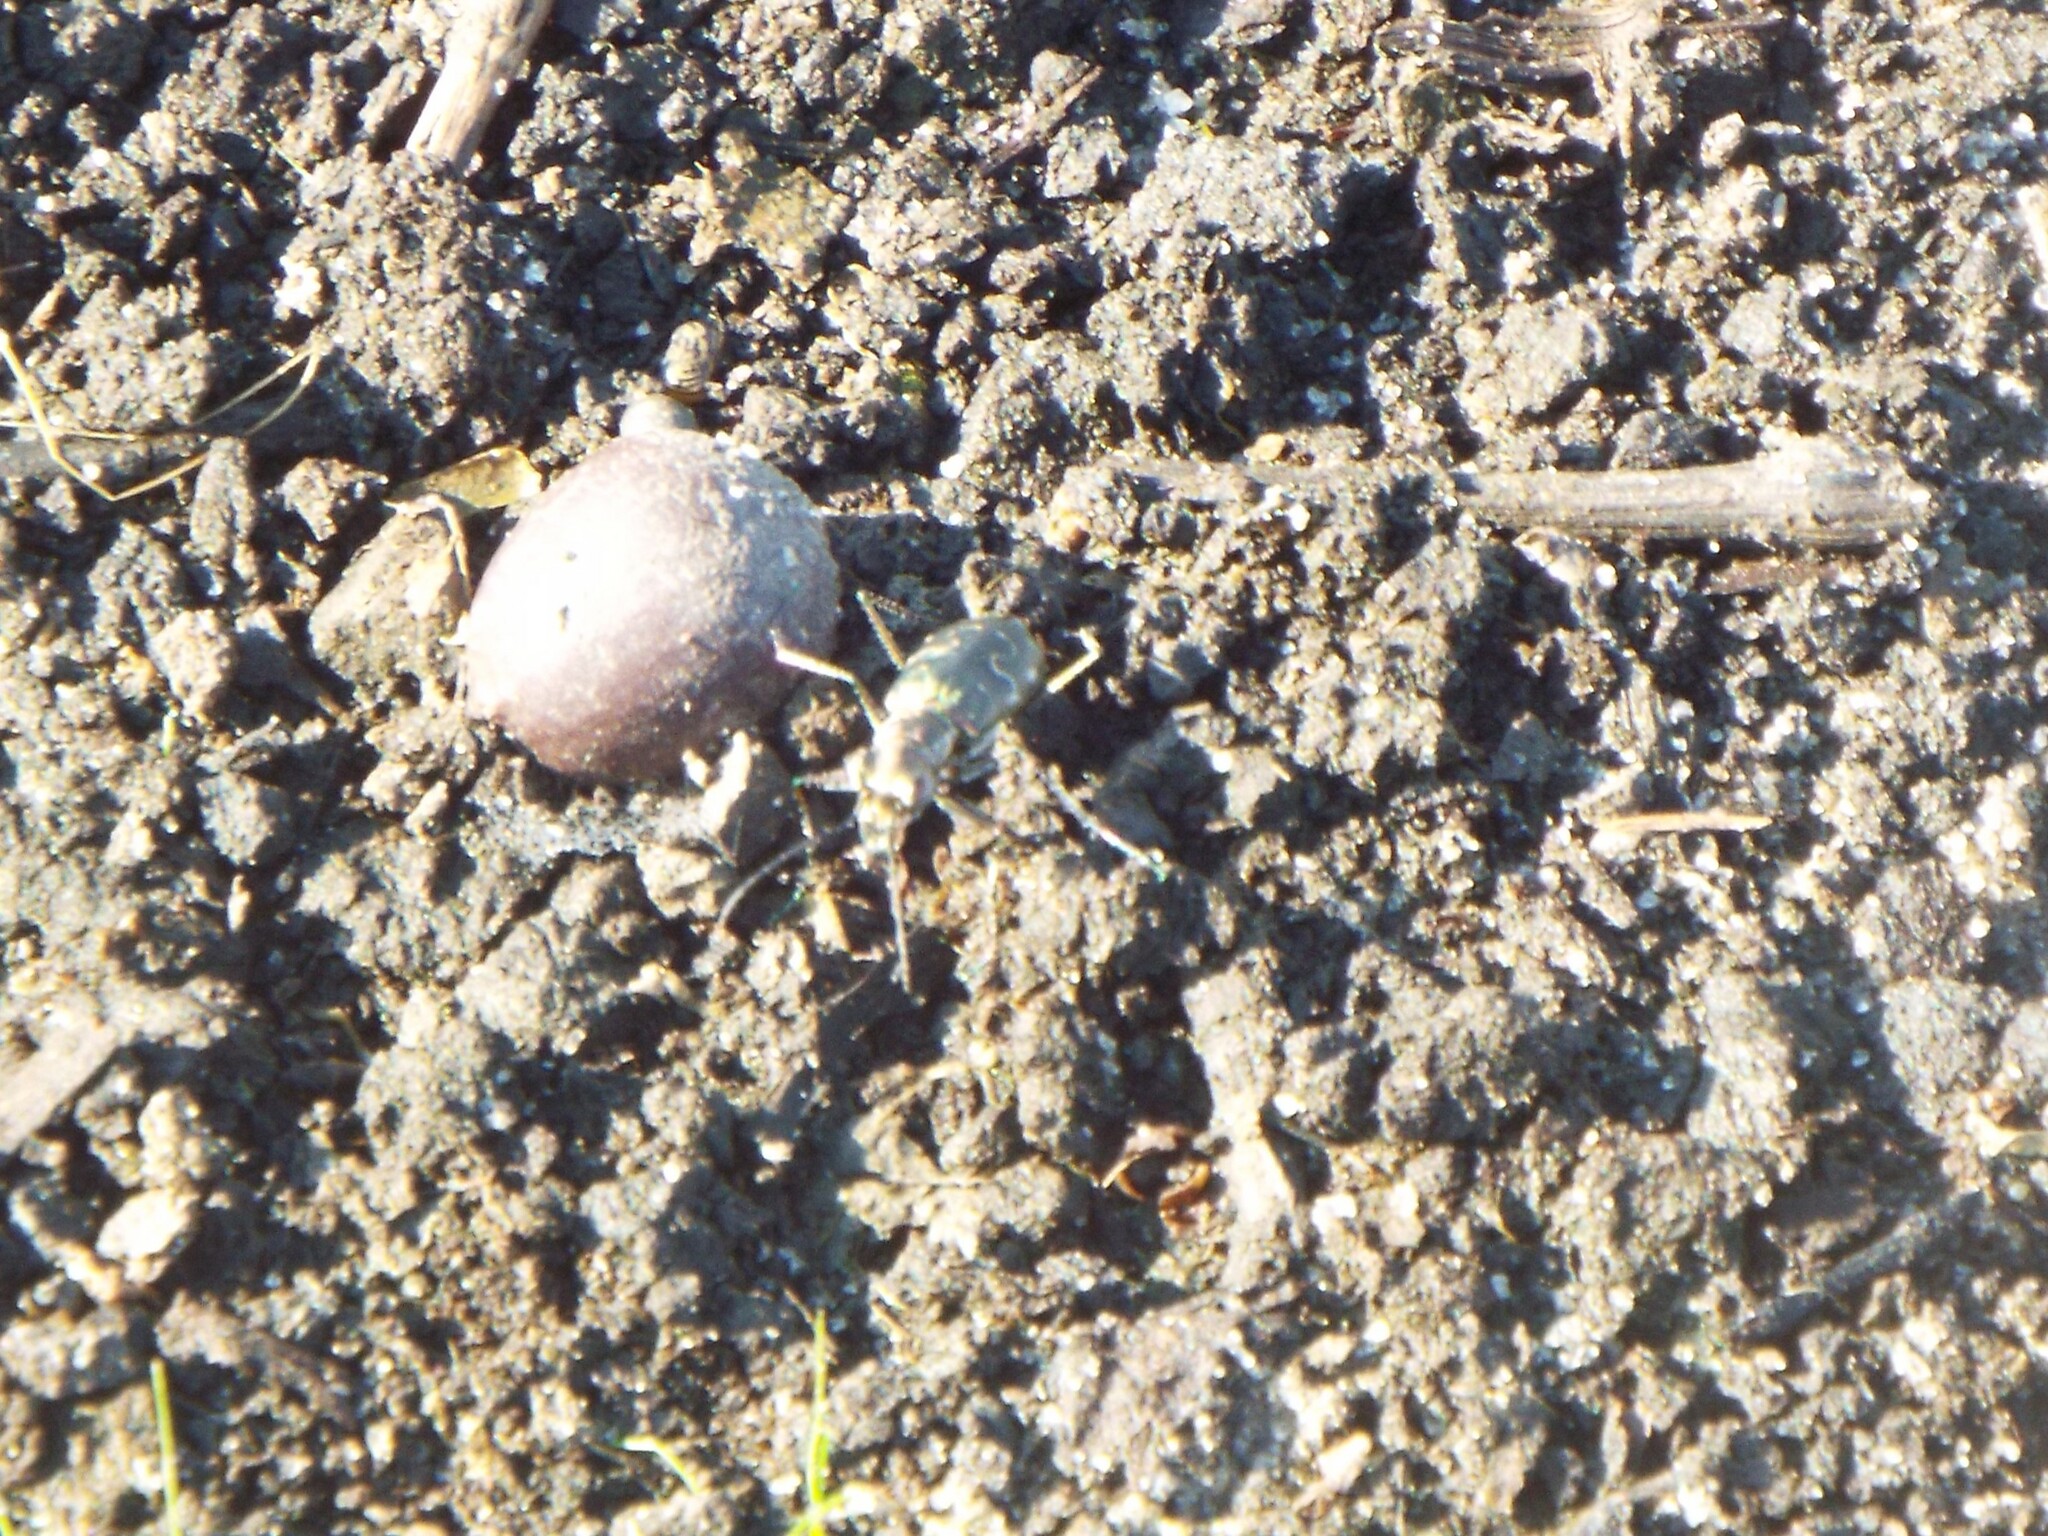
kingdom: Animalia
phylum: Arthropoda
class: Insecta
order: Coleoptera
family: Carabidae
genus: Cicindela
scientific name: Cicindela trifasciata
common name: Mudflat tiger beetle
